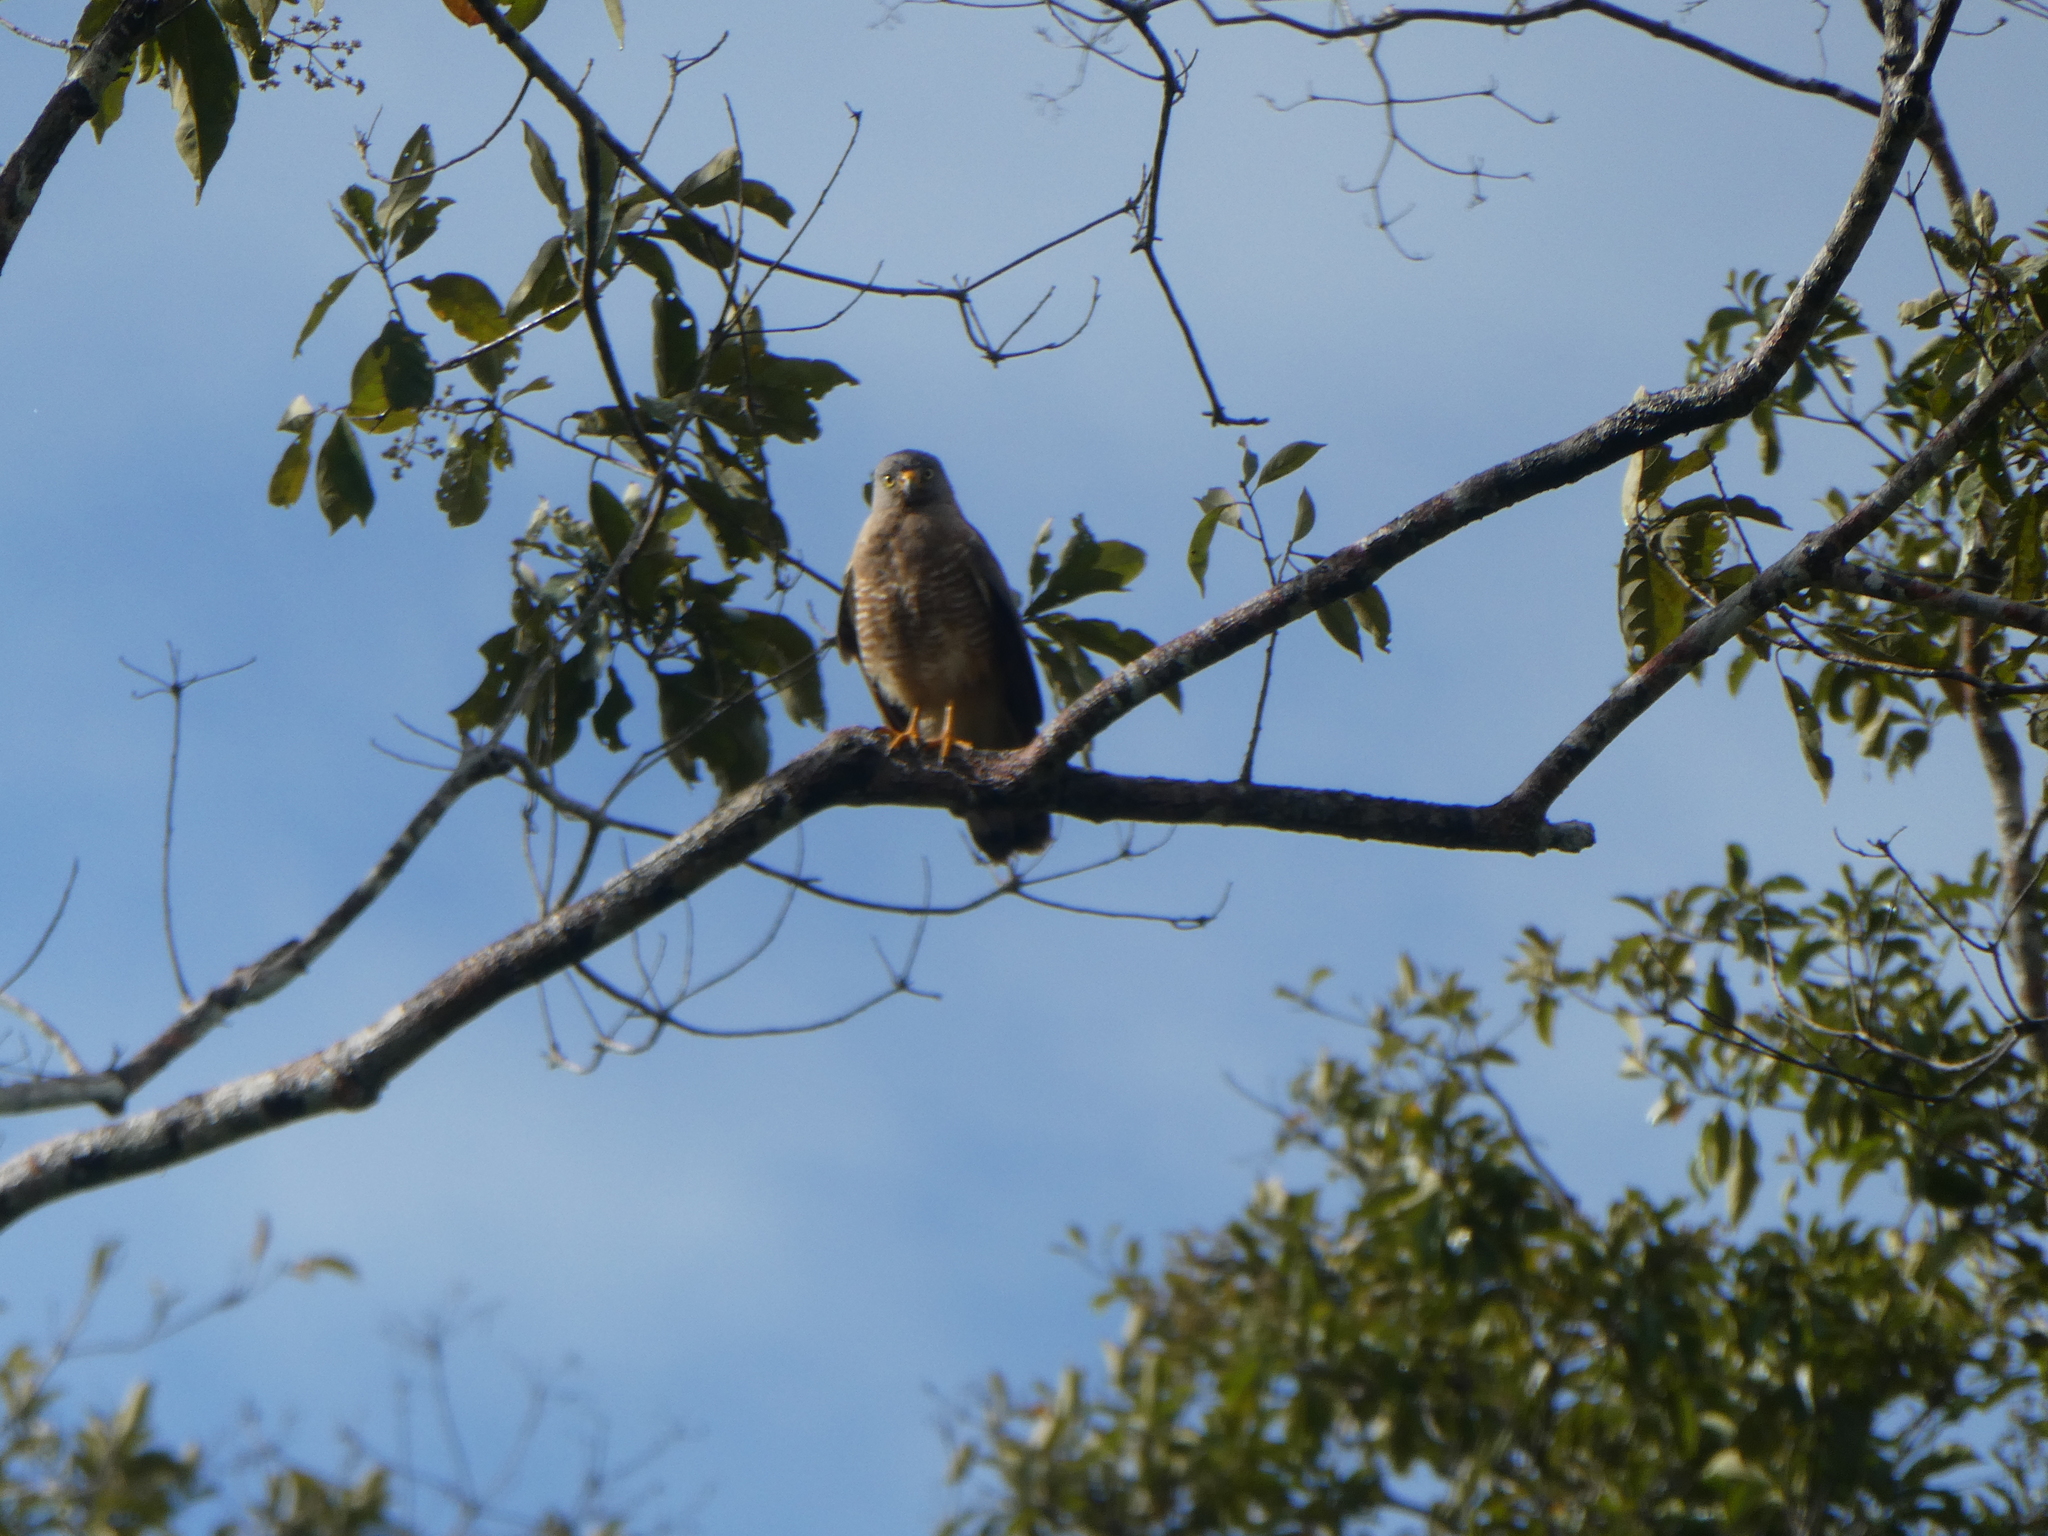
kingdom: Animalia
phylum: Chordata
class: Aves
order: Accipitriformes
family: Accipitridae
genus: Rupornis
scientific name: Rupornis magnirostris
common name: Roadside hawk
